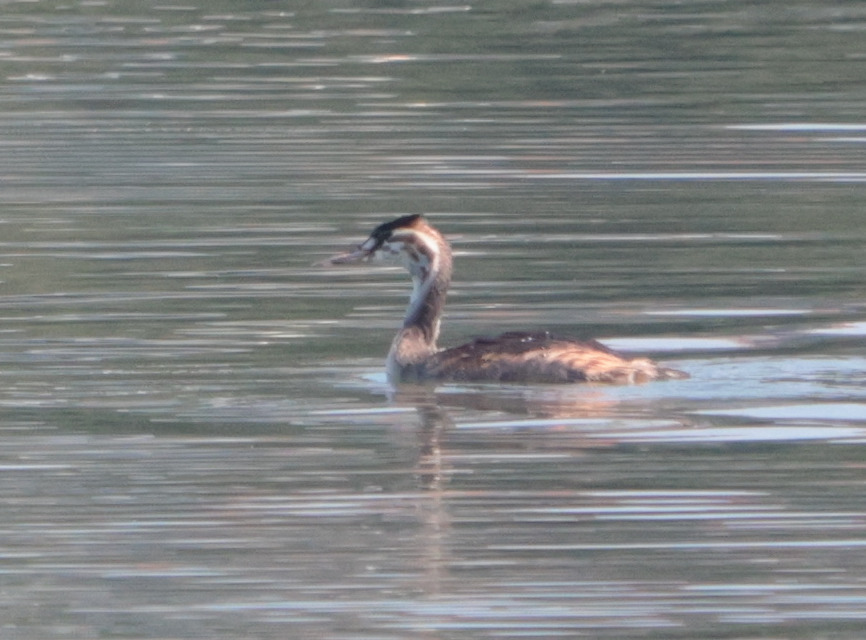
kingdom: Animalia
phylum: Chordata
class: Aves
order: Podicipediformes
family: Podicipedidae
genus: Podiceps
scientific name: Podiceps cristatus
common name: Great crested grebe
